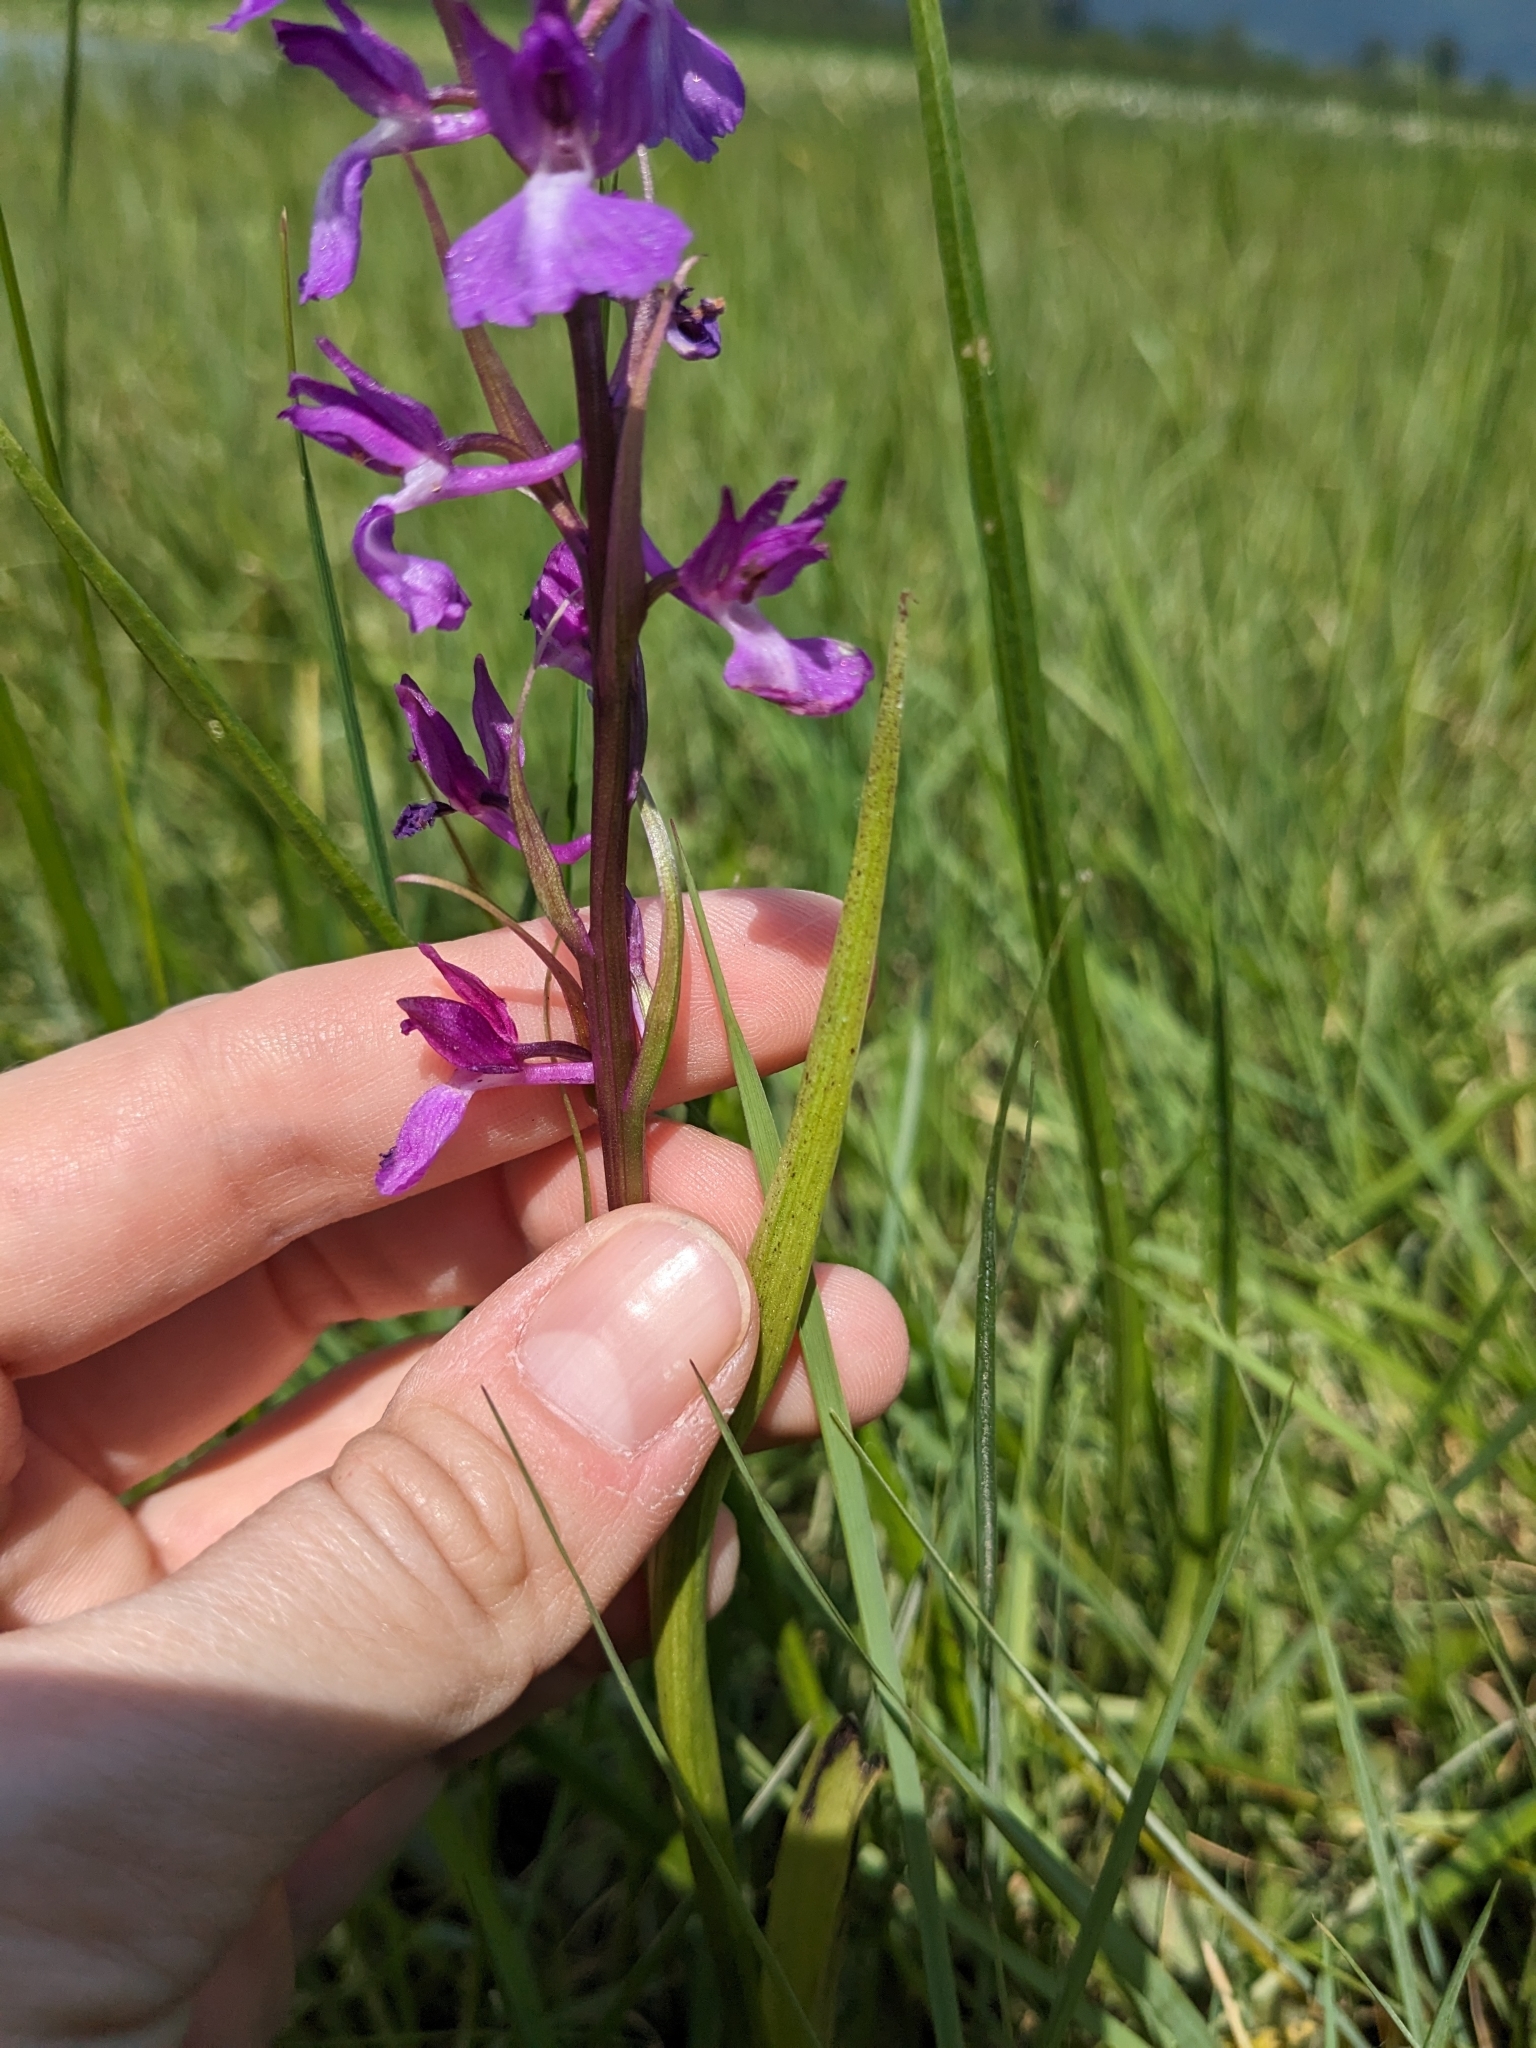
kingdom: Plantae
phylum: Tracheophyta
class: Liliopsida
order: Asparagales
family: Orchidaceae
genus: Anacamptis
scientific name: Anacamptis palustris
